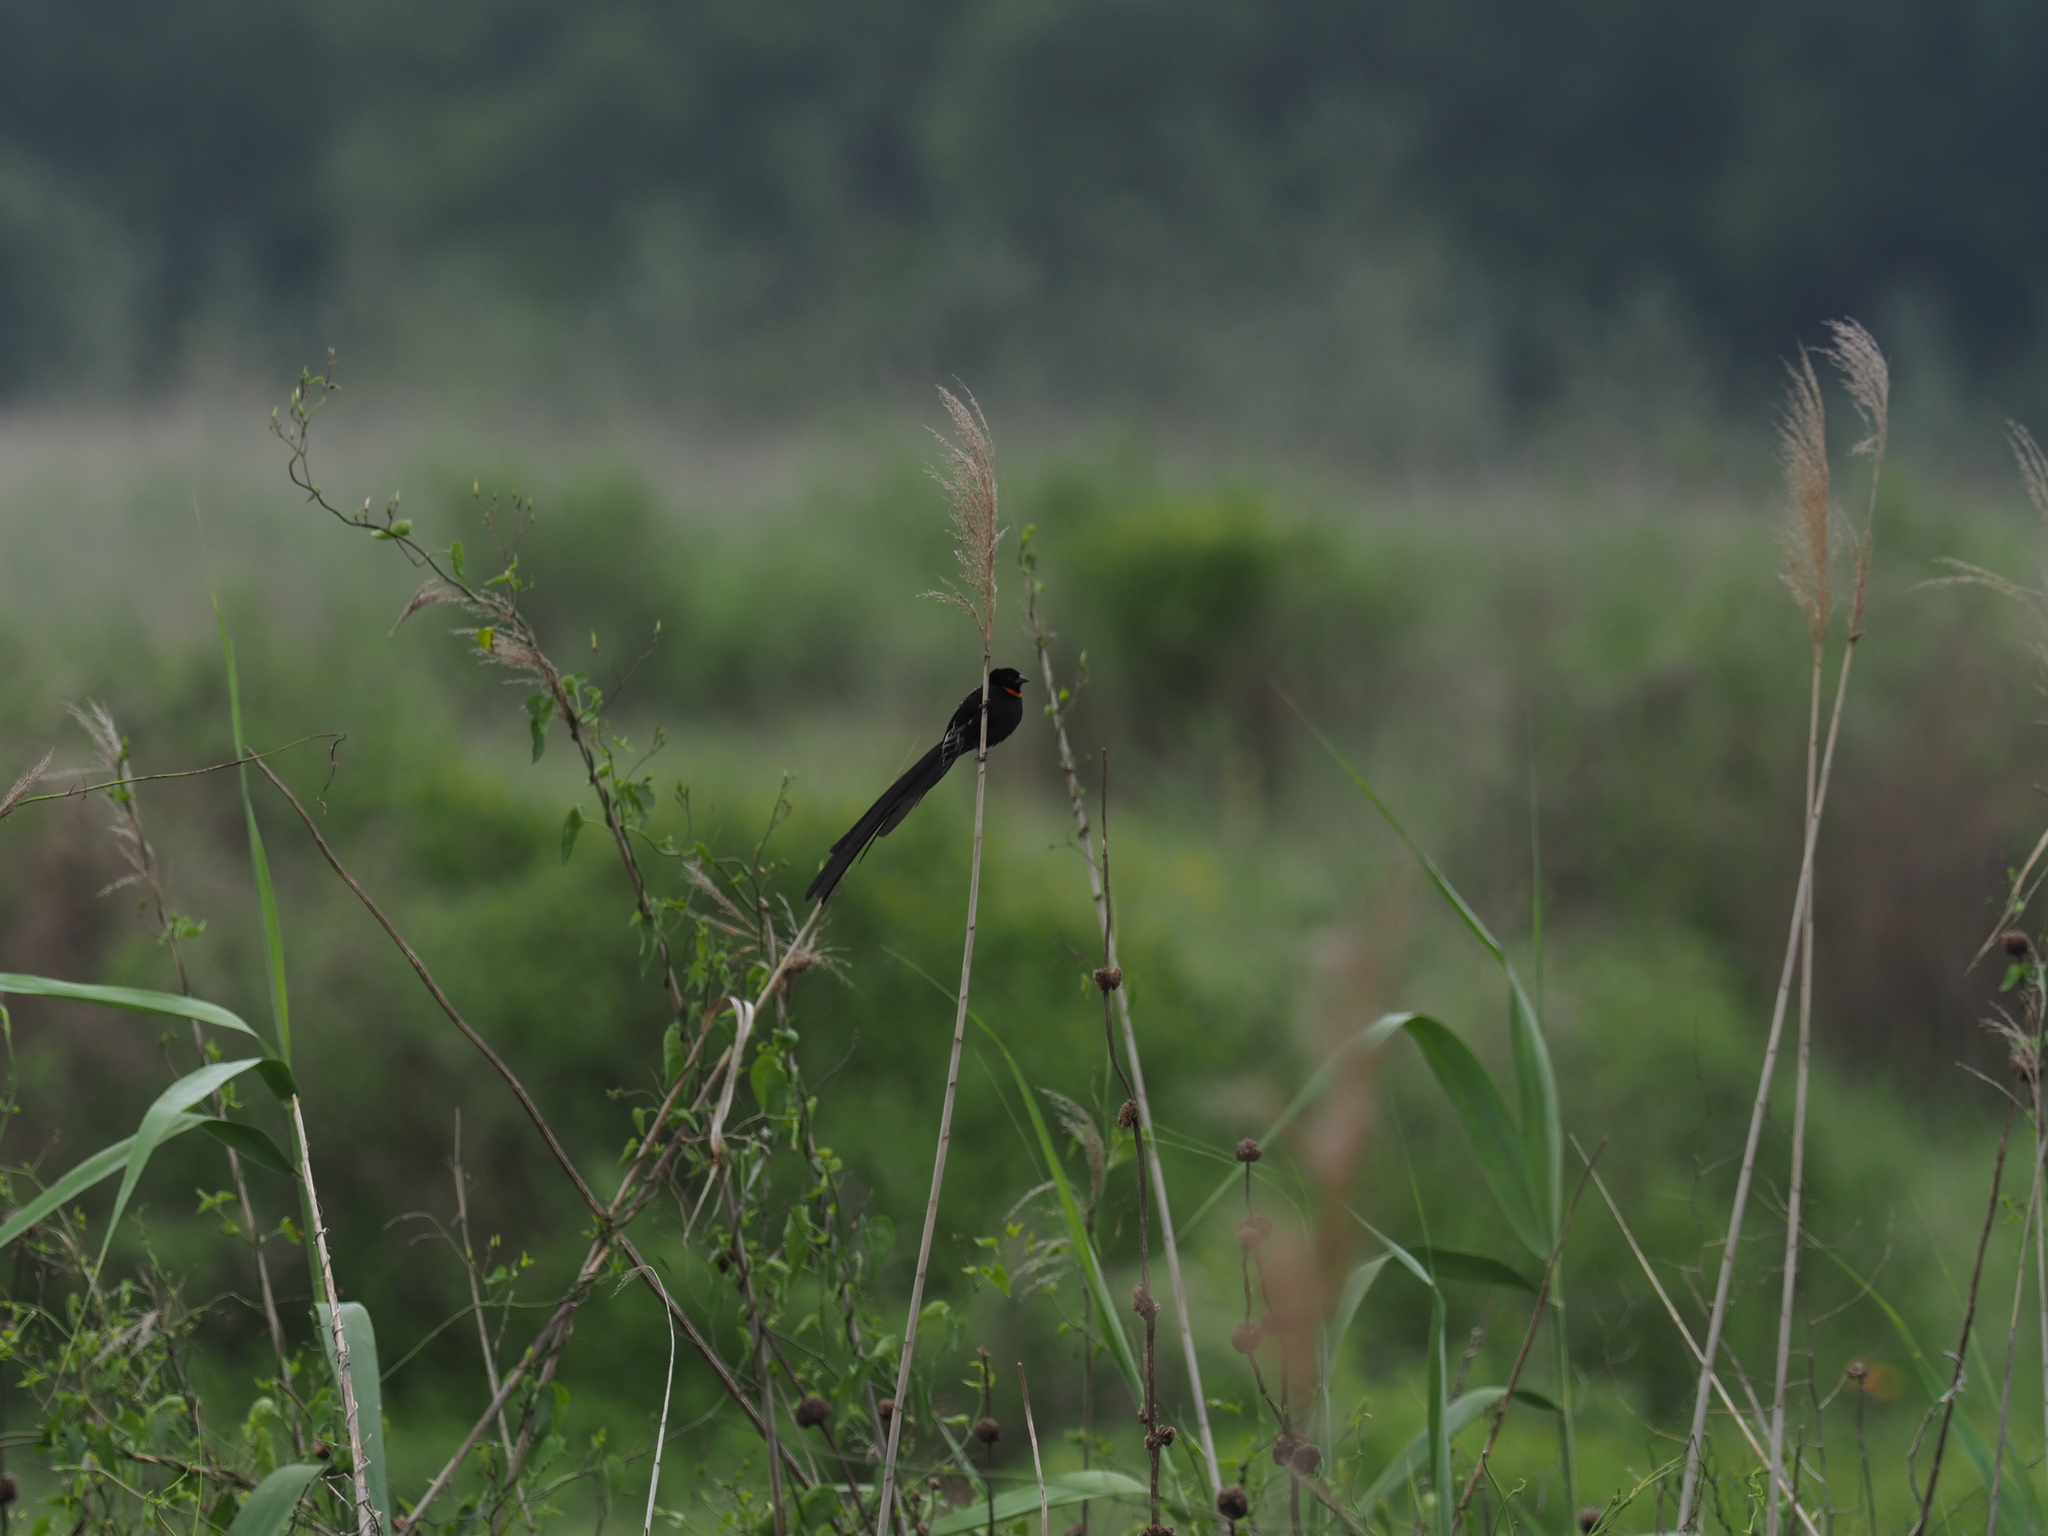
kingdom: Animalia
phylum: Chordata
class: Aves
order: Passeriformes
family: Ploceidae
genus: Euplectes
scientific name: Euplectes ardens
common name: Red-collared widowbird
